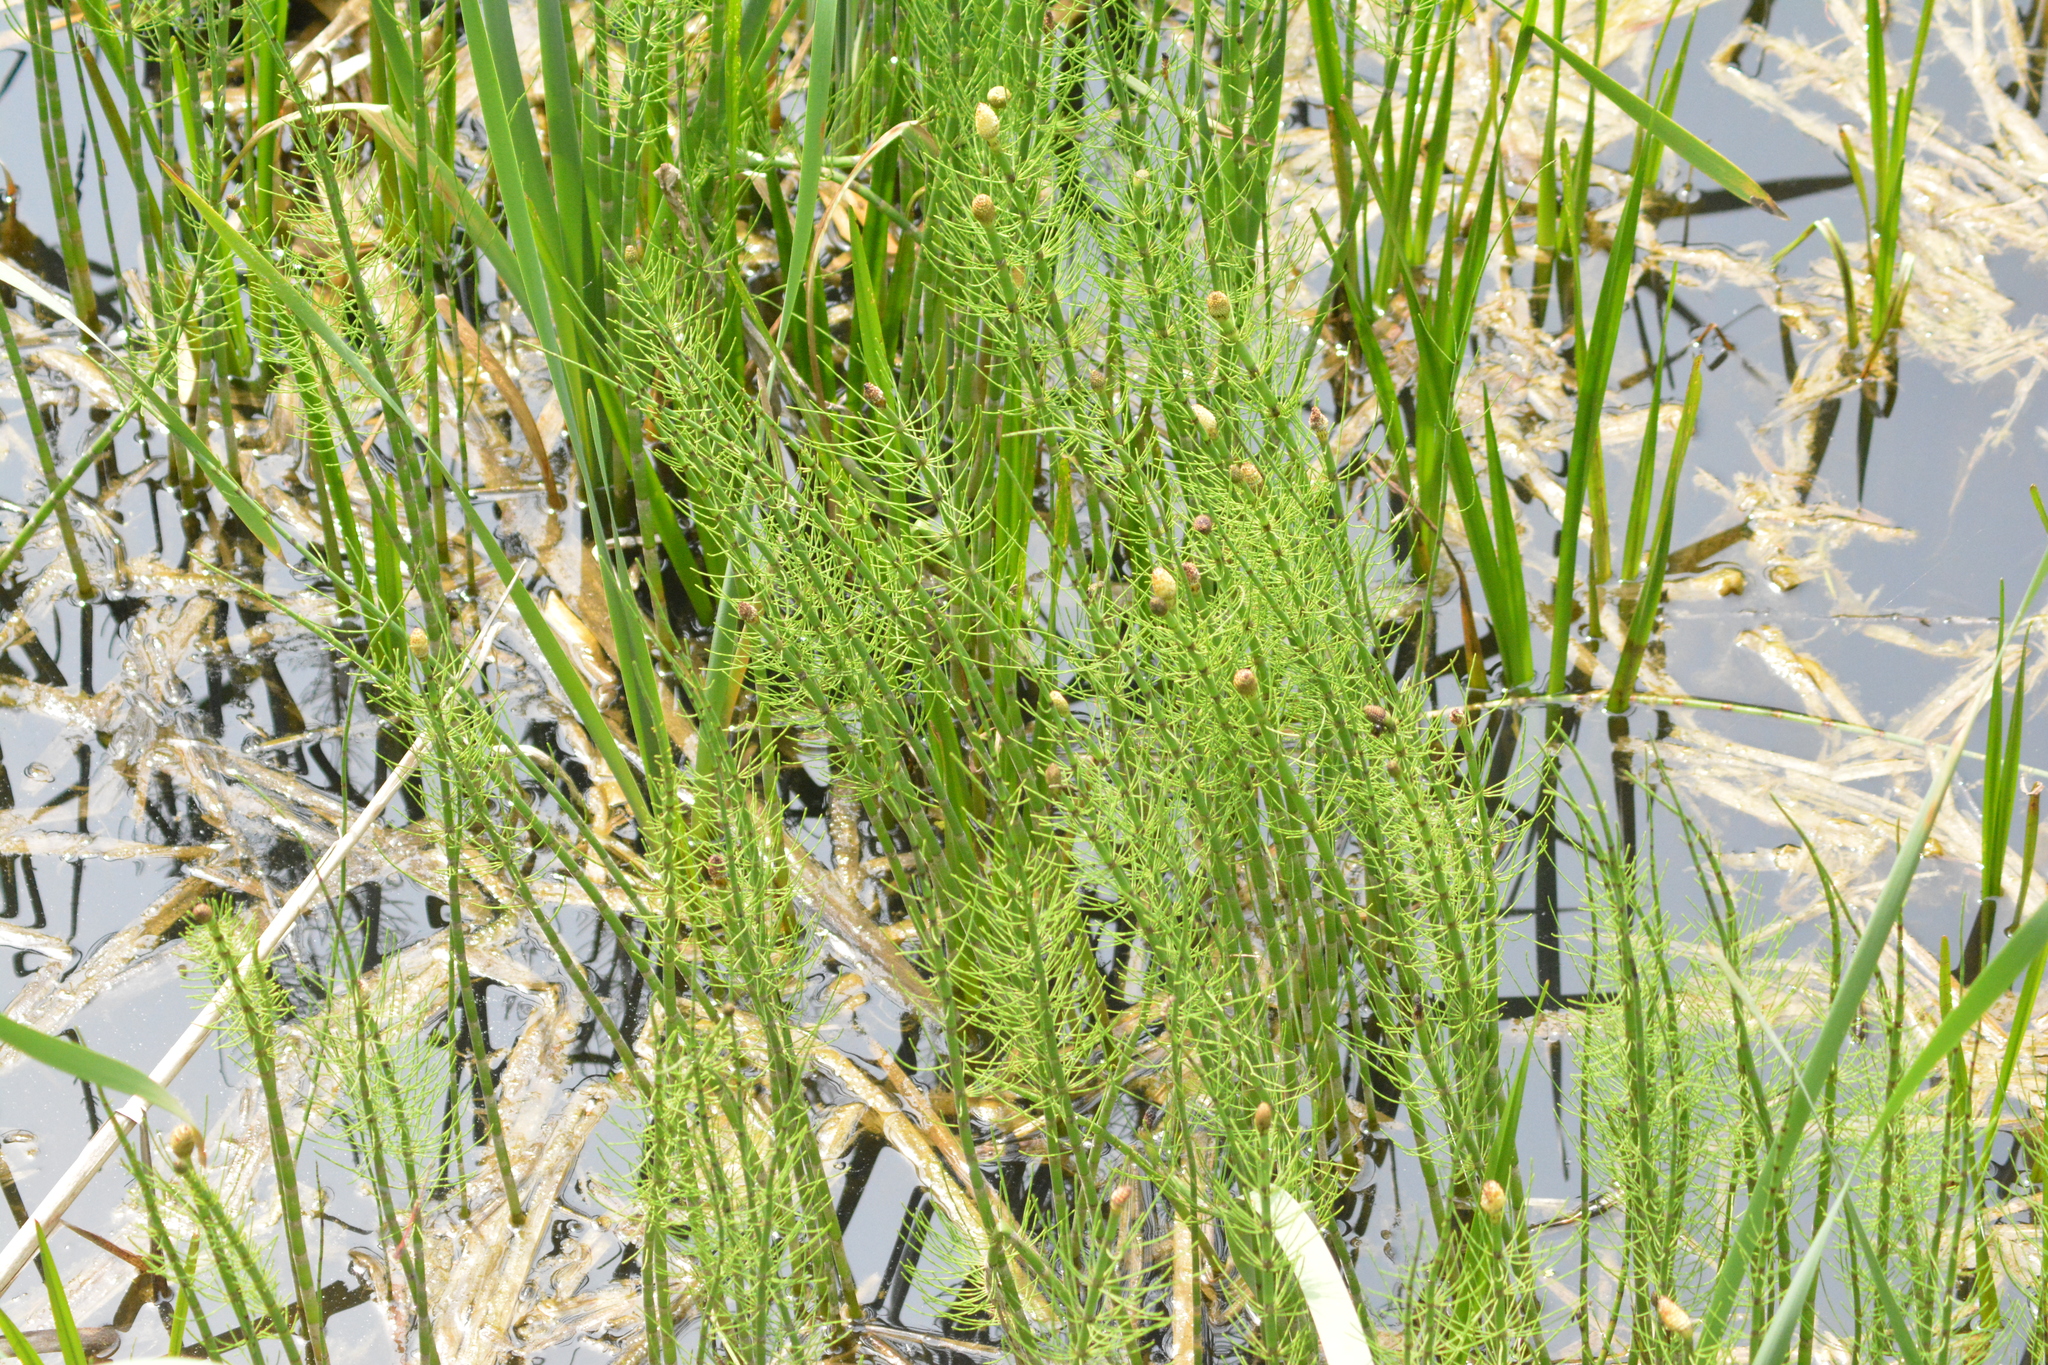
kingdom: Plantae
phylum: Tracheophyta
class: Polypodiopsida
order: Equisetales
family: Equisetaceae
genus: Equisetum
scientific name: Equisetum fluviatile
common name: Water horsetail
